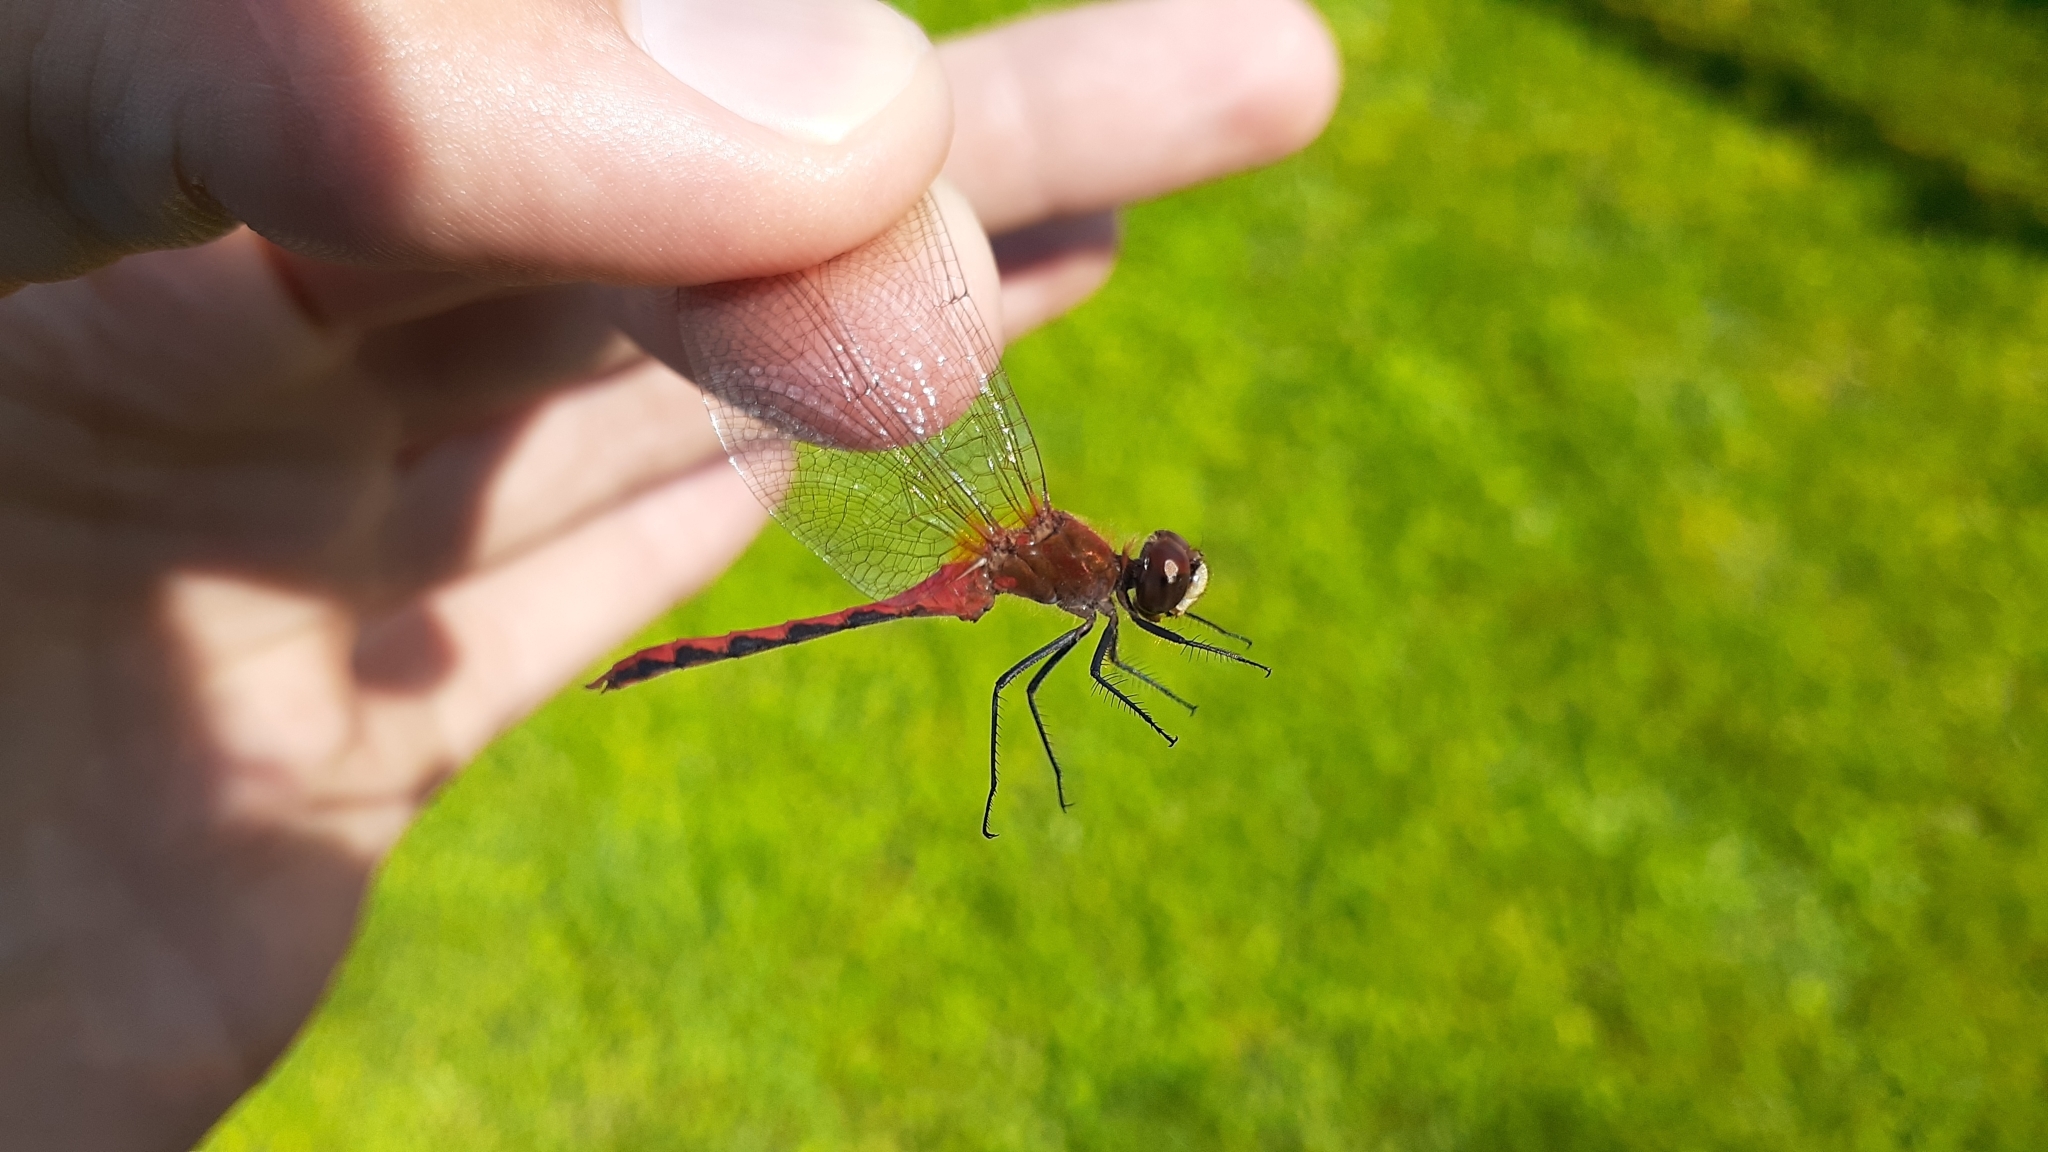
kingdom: Animalia
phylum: Arthropoda
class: Insecta
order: Odonata
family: Libellulidae
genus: Sympetrum
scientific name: Sympetrum obtrusum
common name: White-faced meadowhawk
